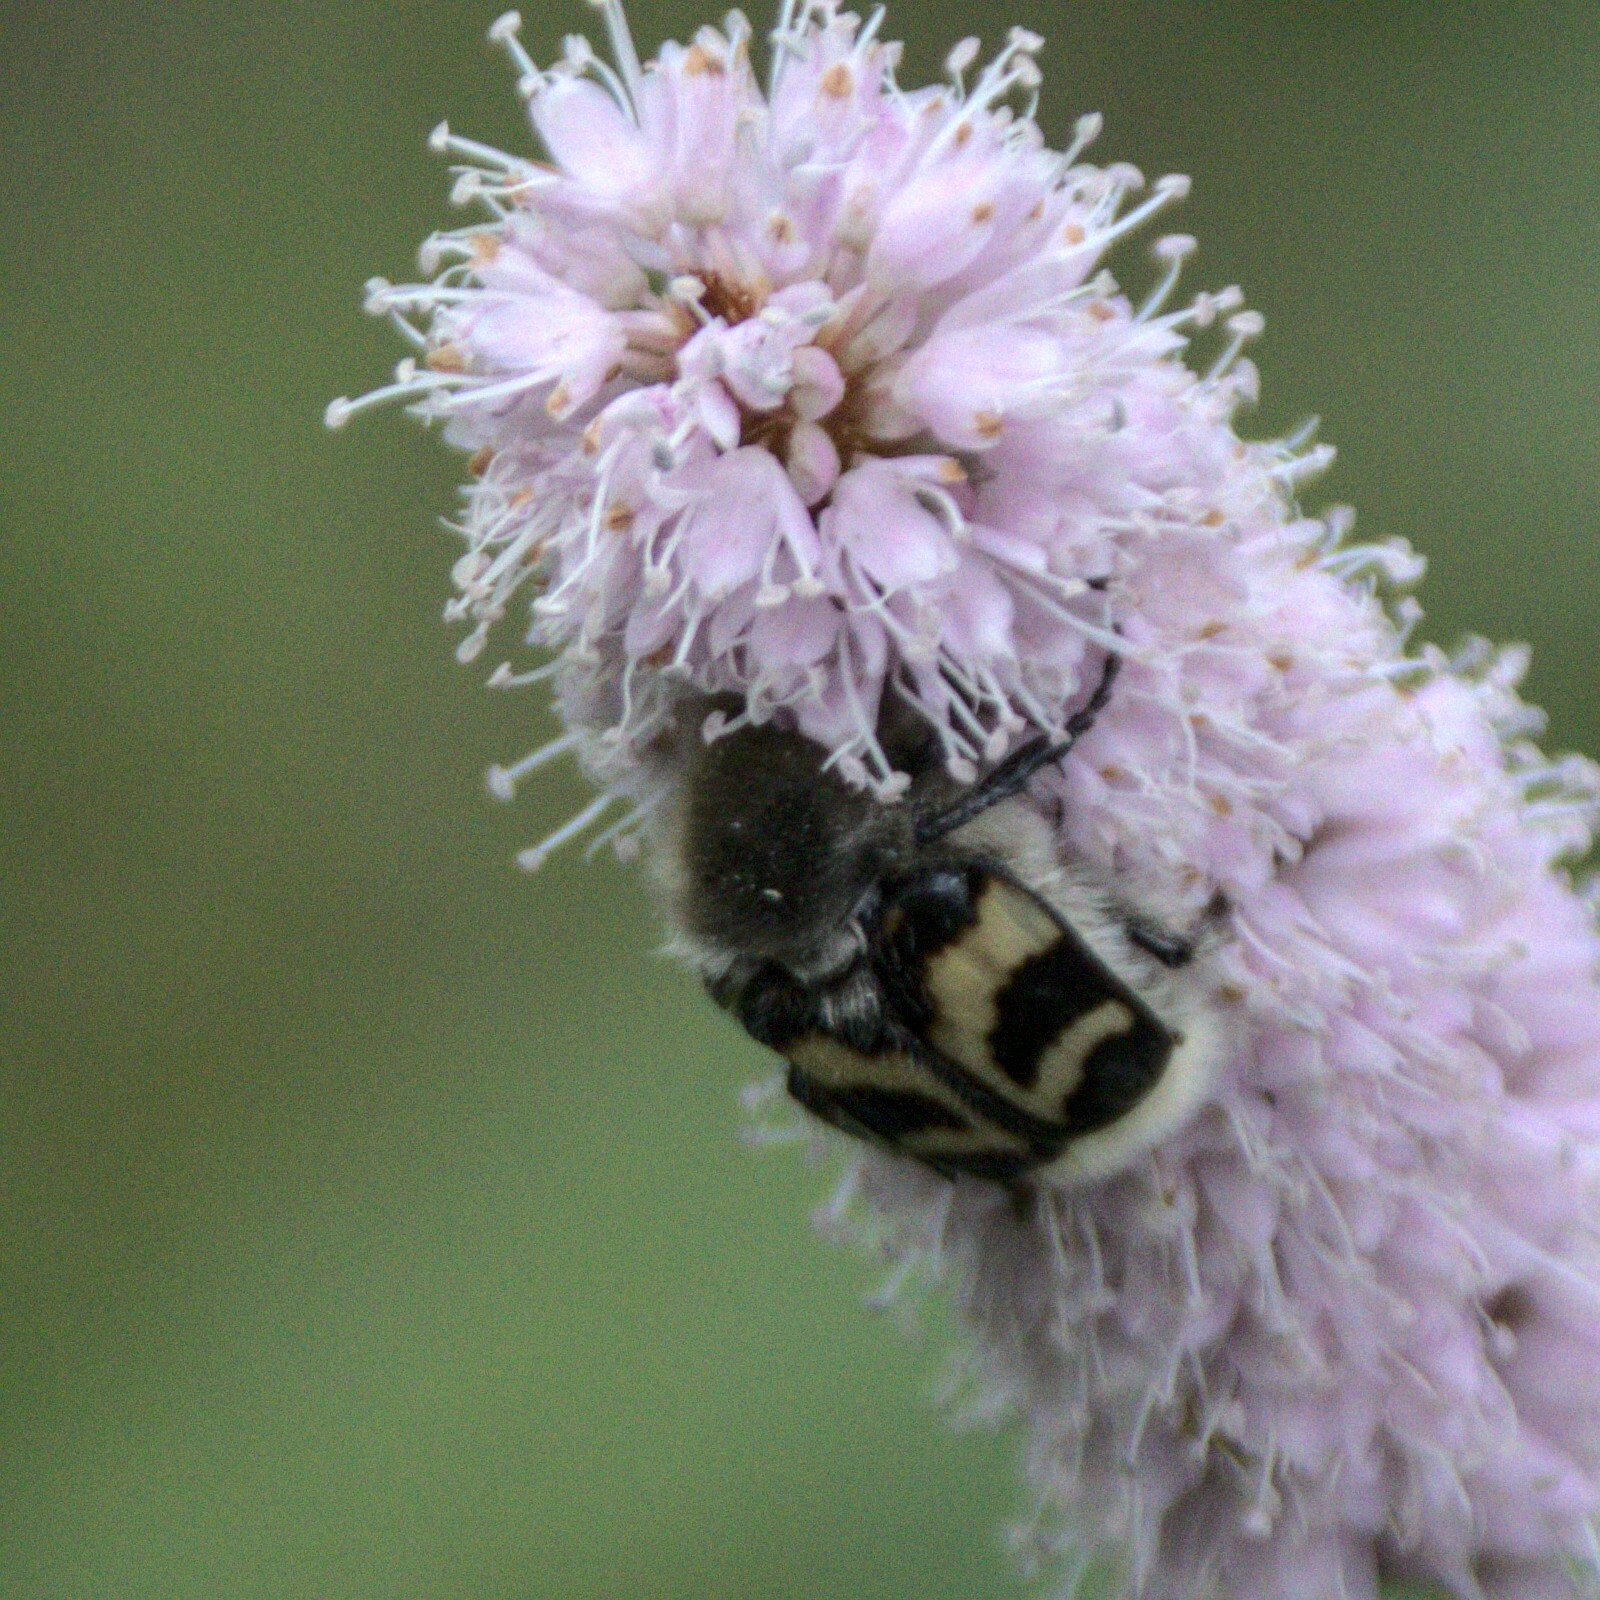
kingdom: Animalia
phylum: Arthropoda
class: Insecta
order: Coleoptera
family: Scarabaeidae
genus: Trichius
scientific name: Trichius fasciatus
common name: Bee beetle
